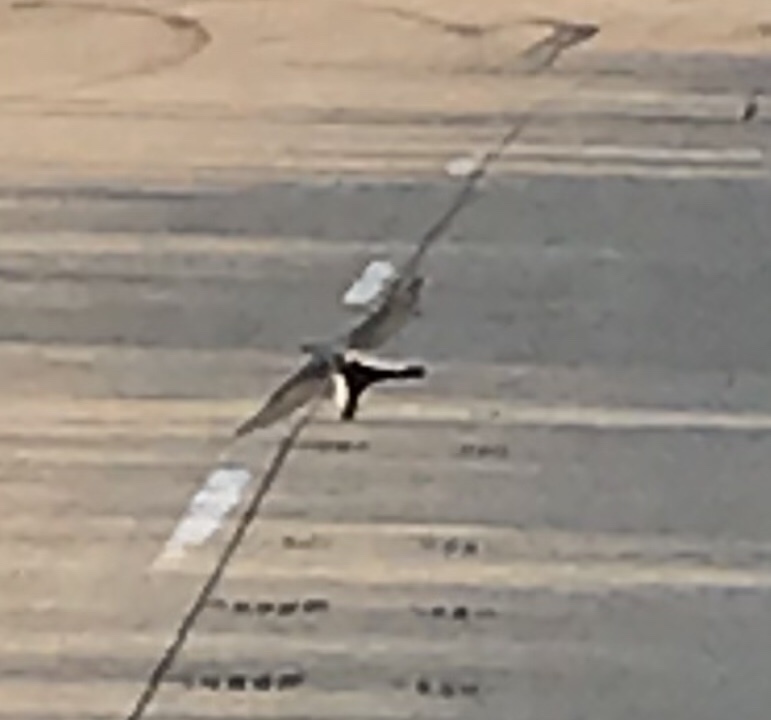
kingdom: Animalia
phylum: Chordata
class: Aves
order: Passeriformes
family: Tyrannidae
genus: Tyrannus
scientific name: Tyrannus forficatus
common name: Scissor-tailed flycatcher
